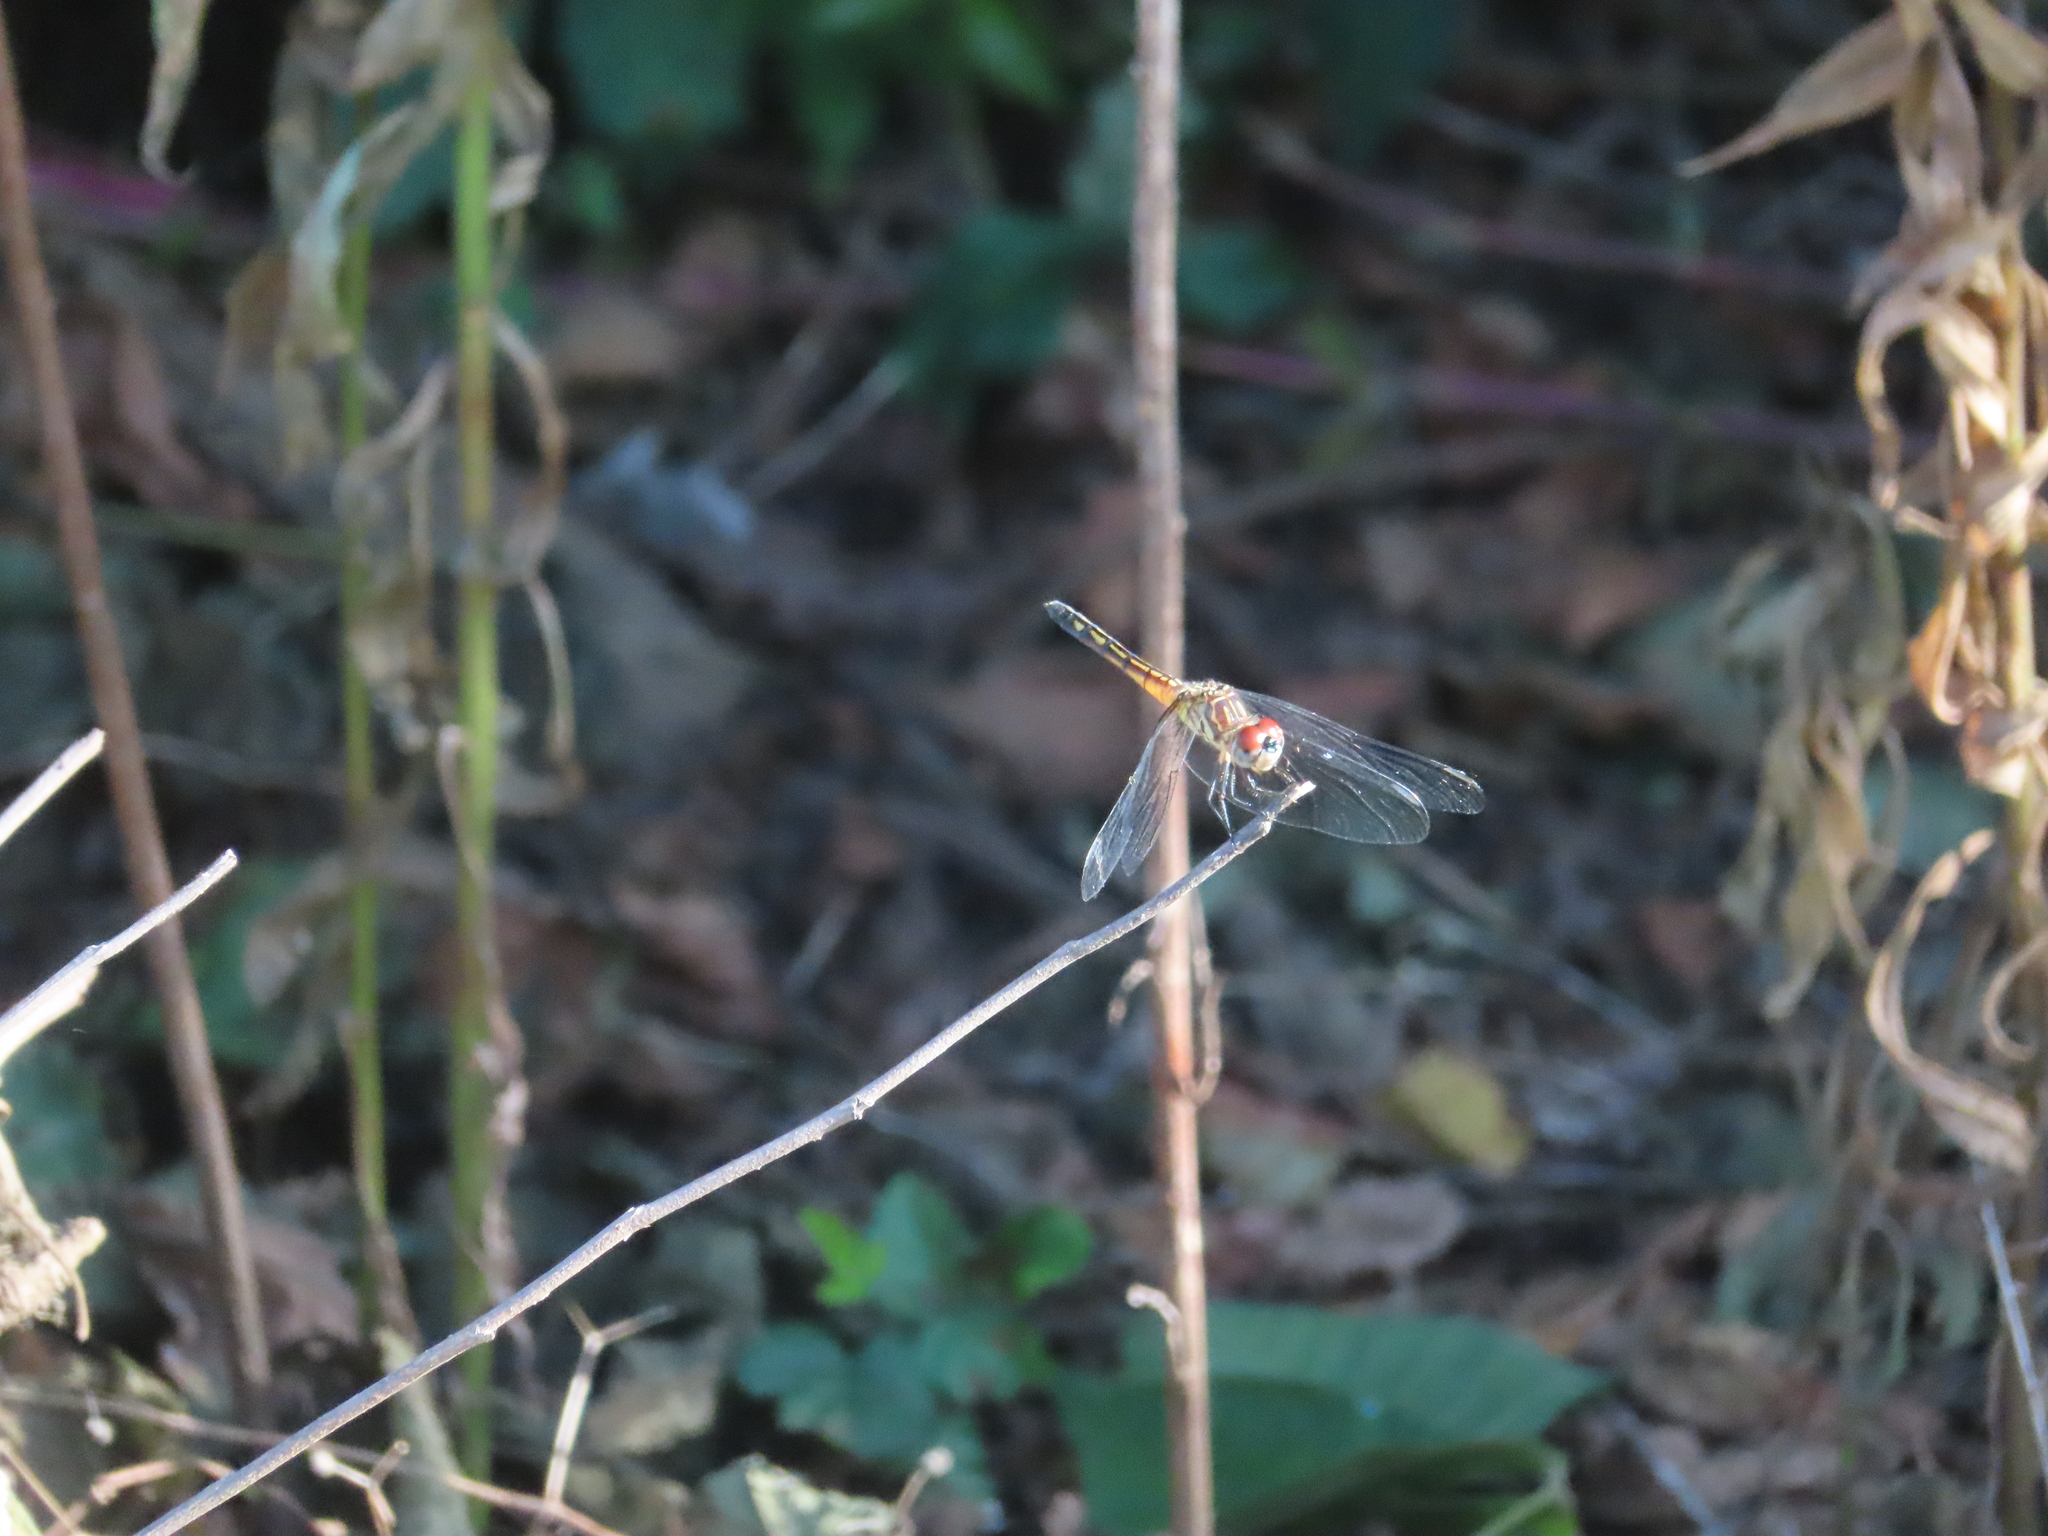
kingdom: Animalia
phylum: Arthropoda
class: Insecta
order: Odonata
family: Libellulidae
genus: Pachydiplax
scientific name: Pachydiplax longipennis
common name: Blue dasher
